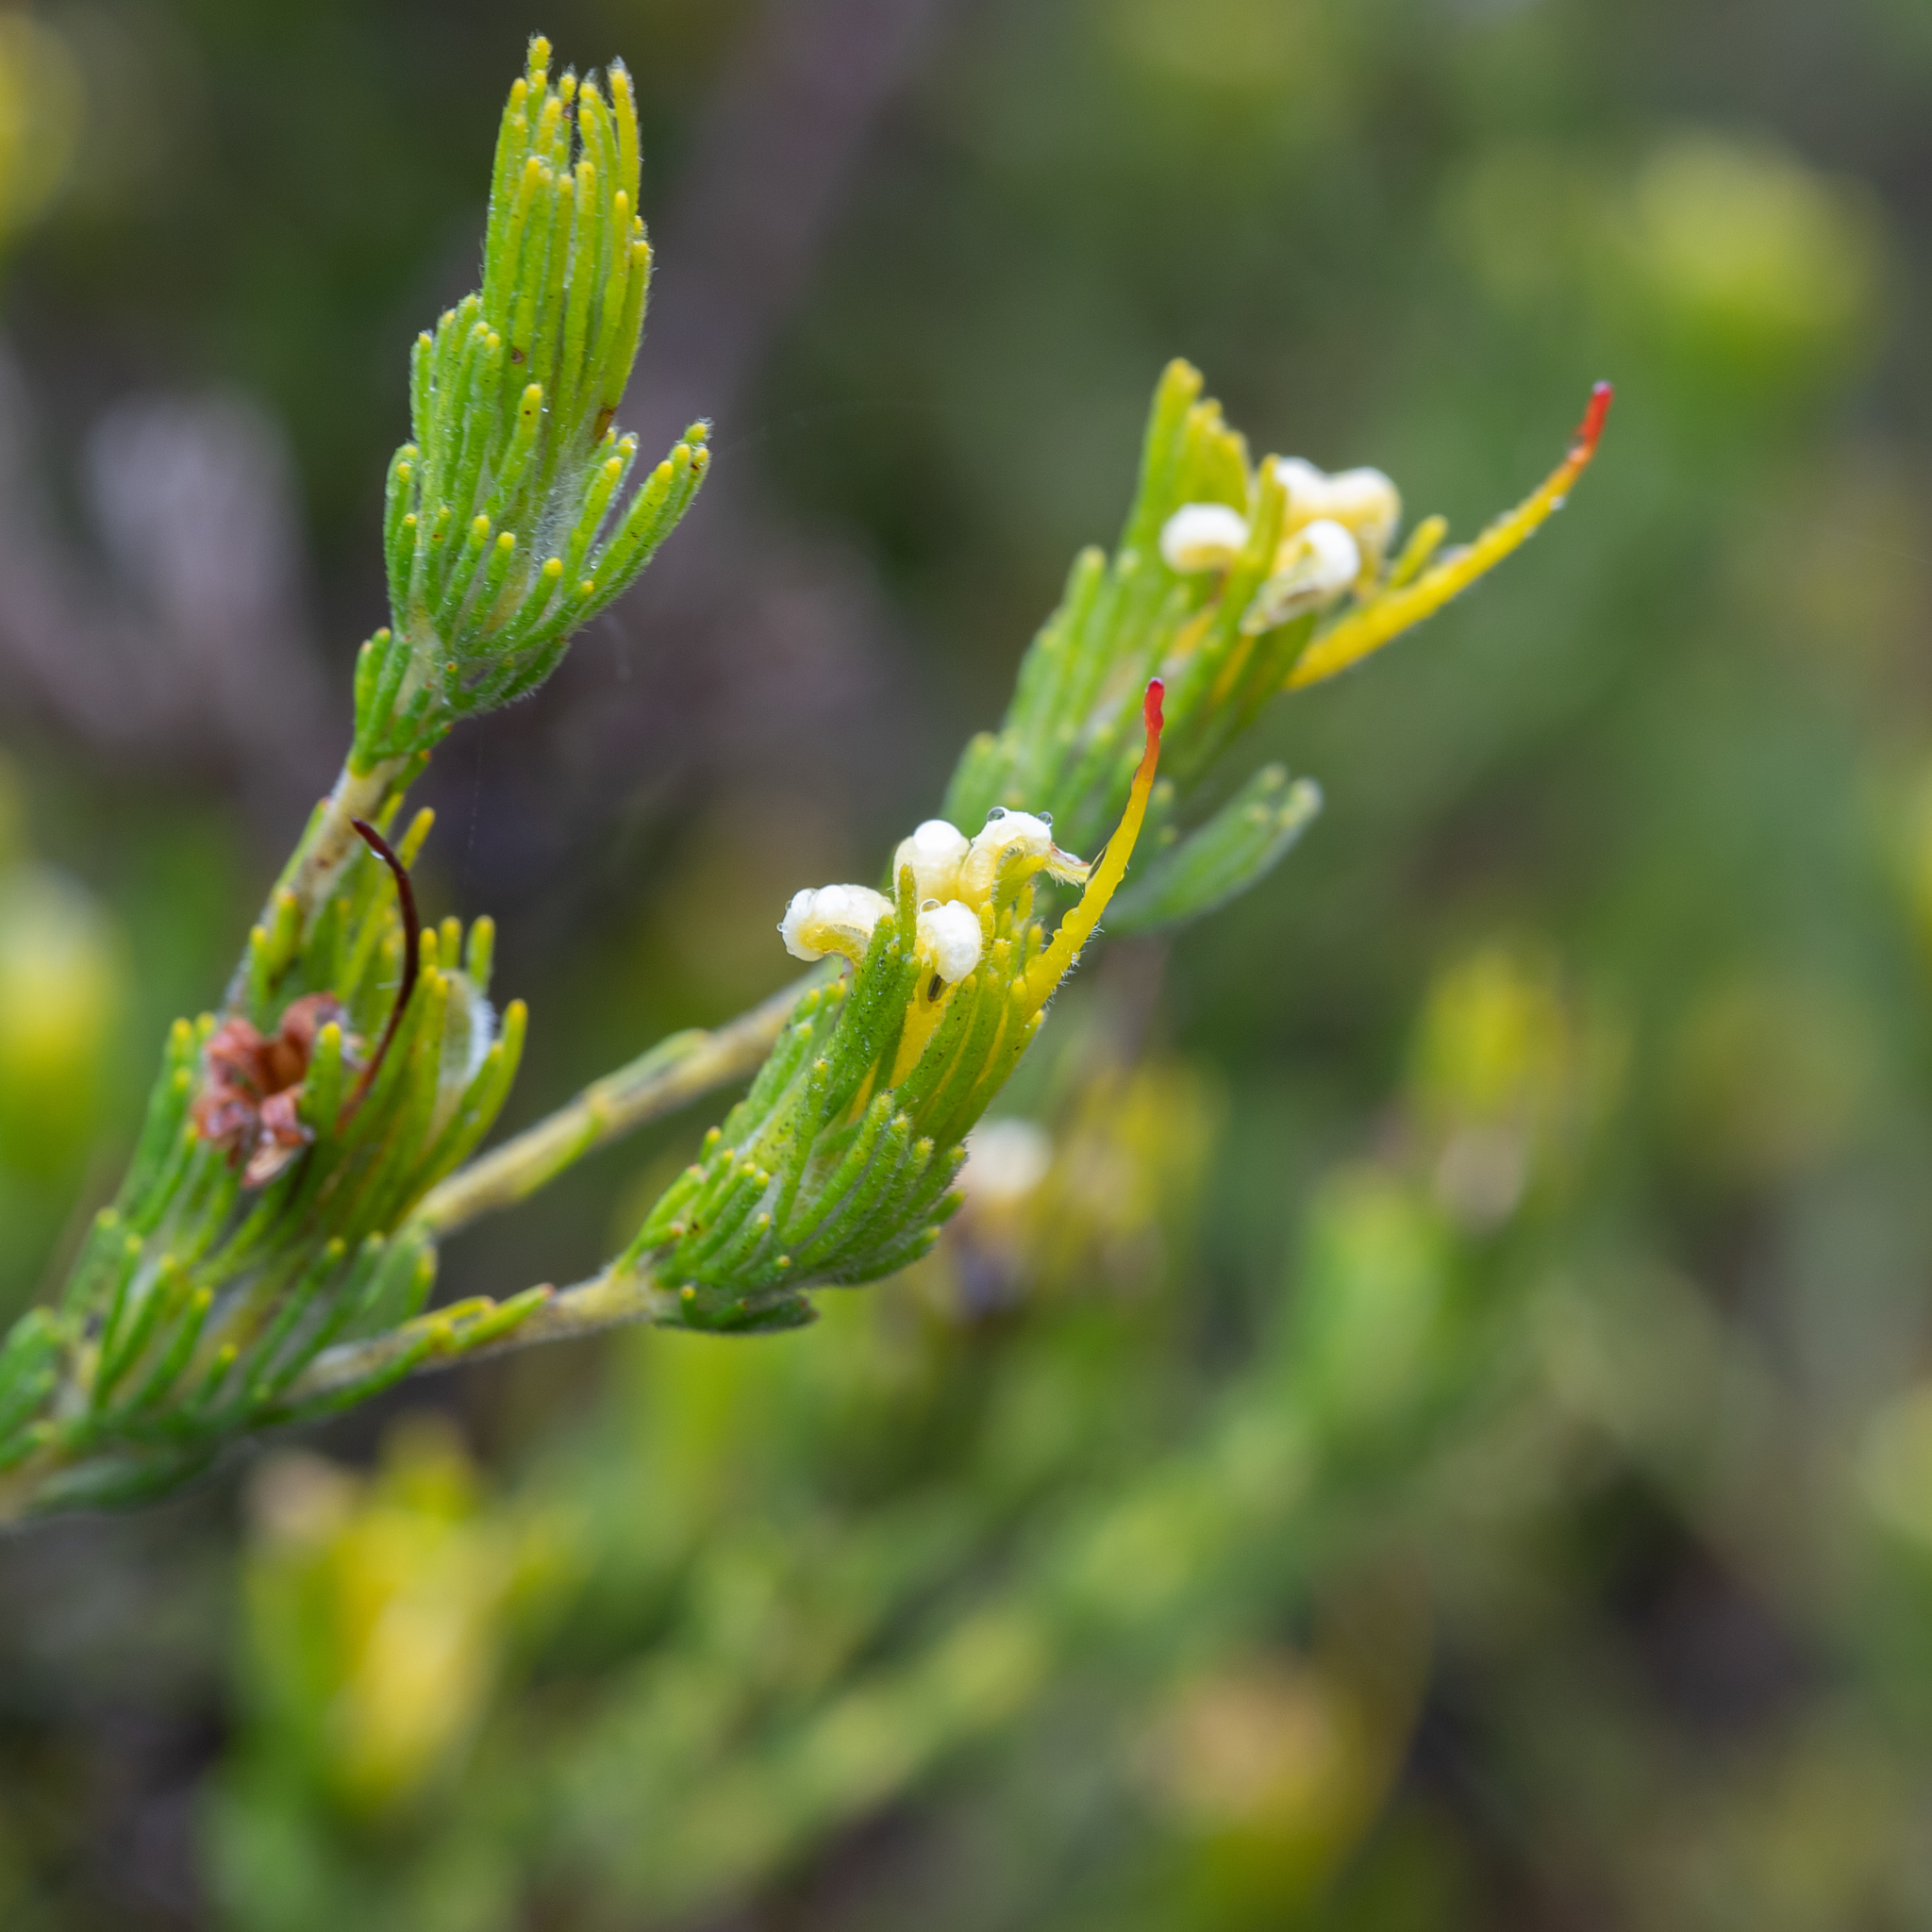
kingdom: Plantae
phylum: Tracheophyta
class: Magnoliopsida
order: Proteales
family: Proteaceae
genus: Adenanthos
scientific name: Adenanthos terminalis
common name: Yellow gland-flower
